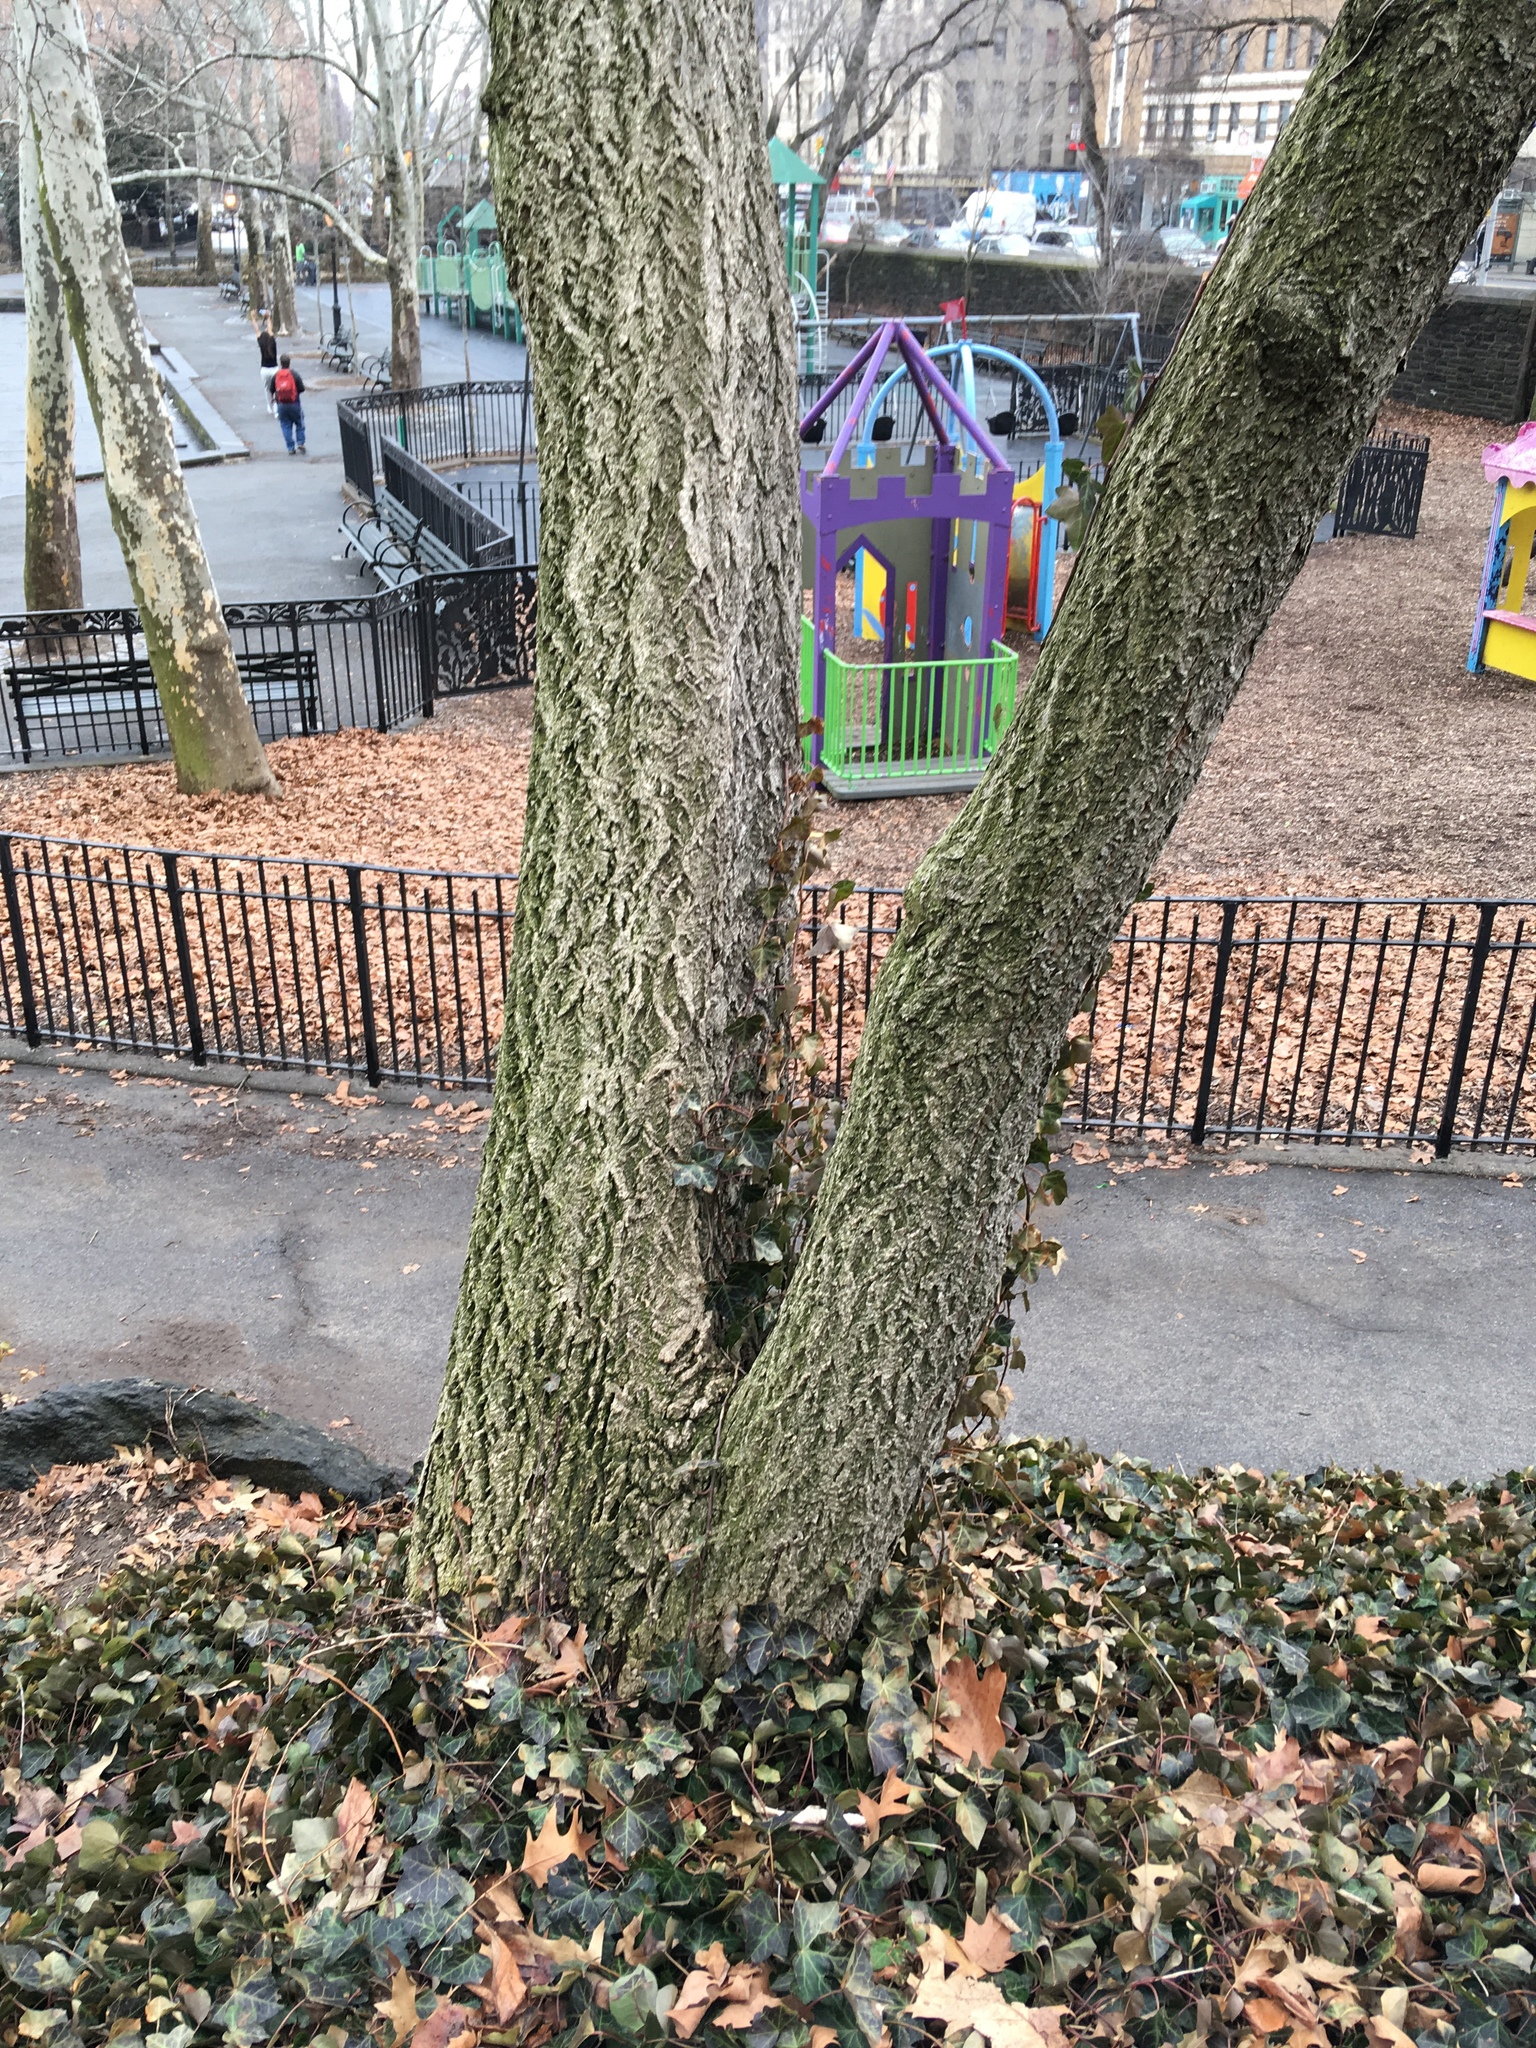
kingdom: Plantae
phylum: Tracheophyta
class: Magnoliopsida
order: Apiales
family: Araliaceae
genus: Hedera
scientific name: Hedera helix
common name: Ivy
